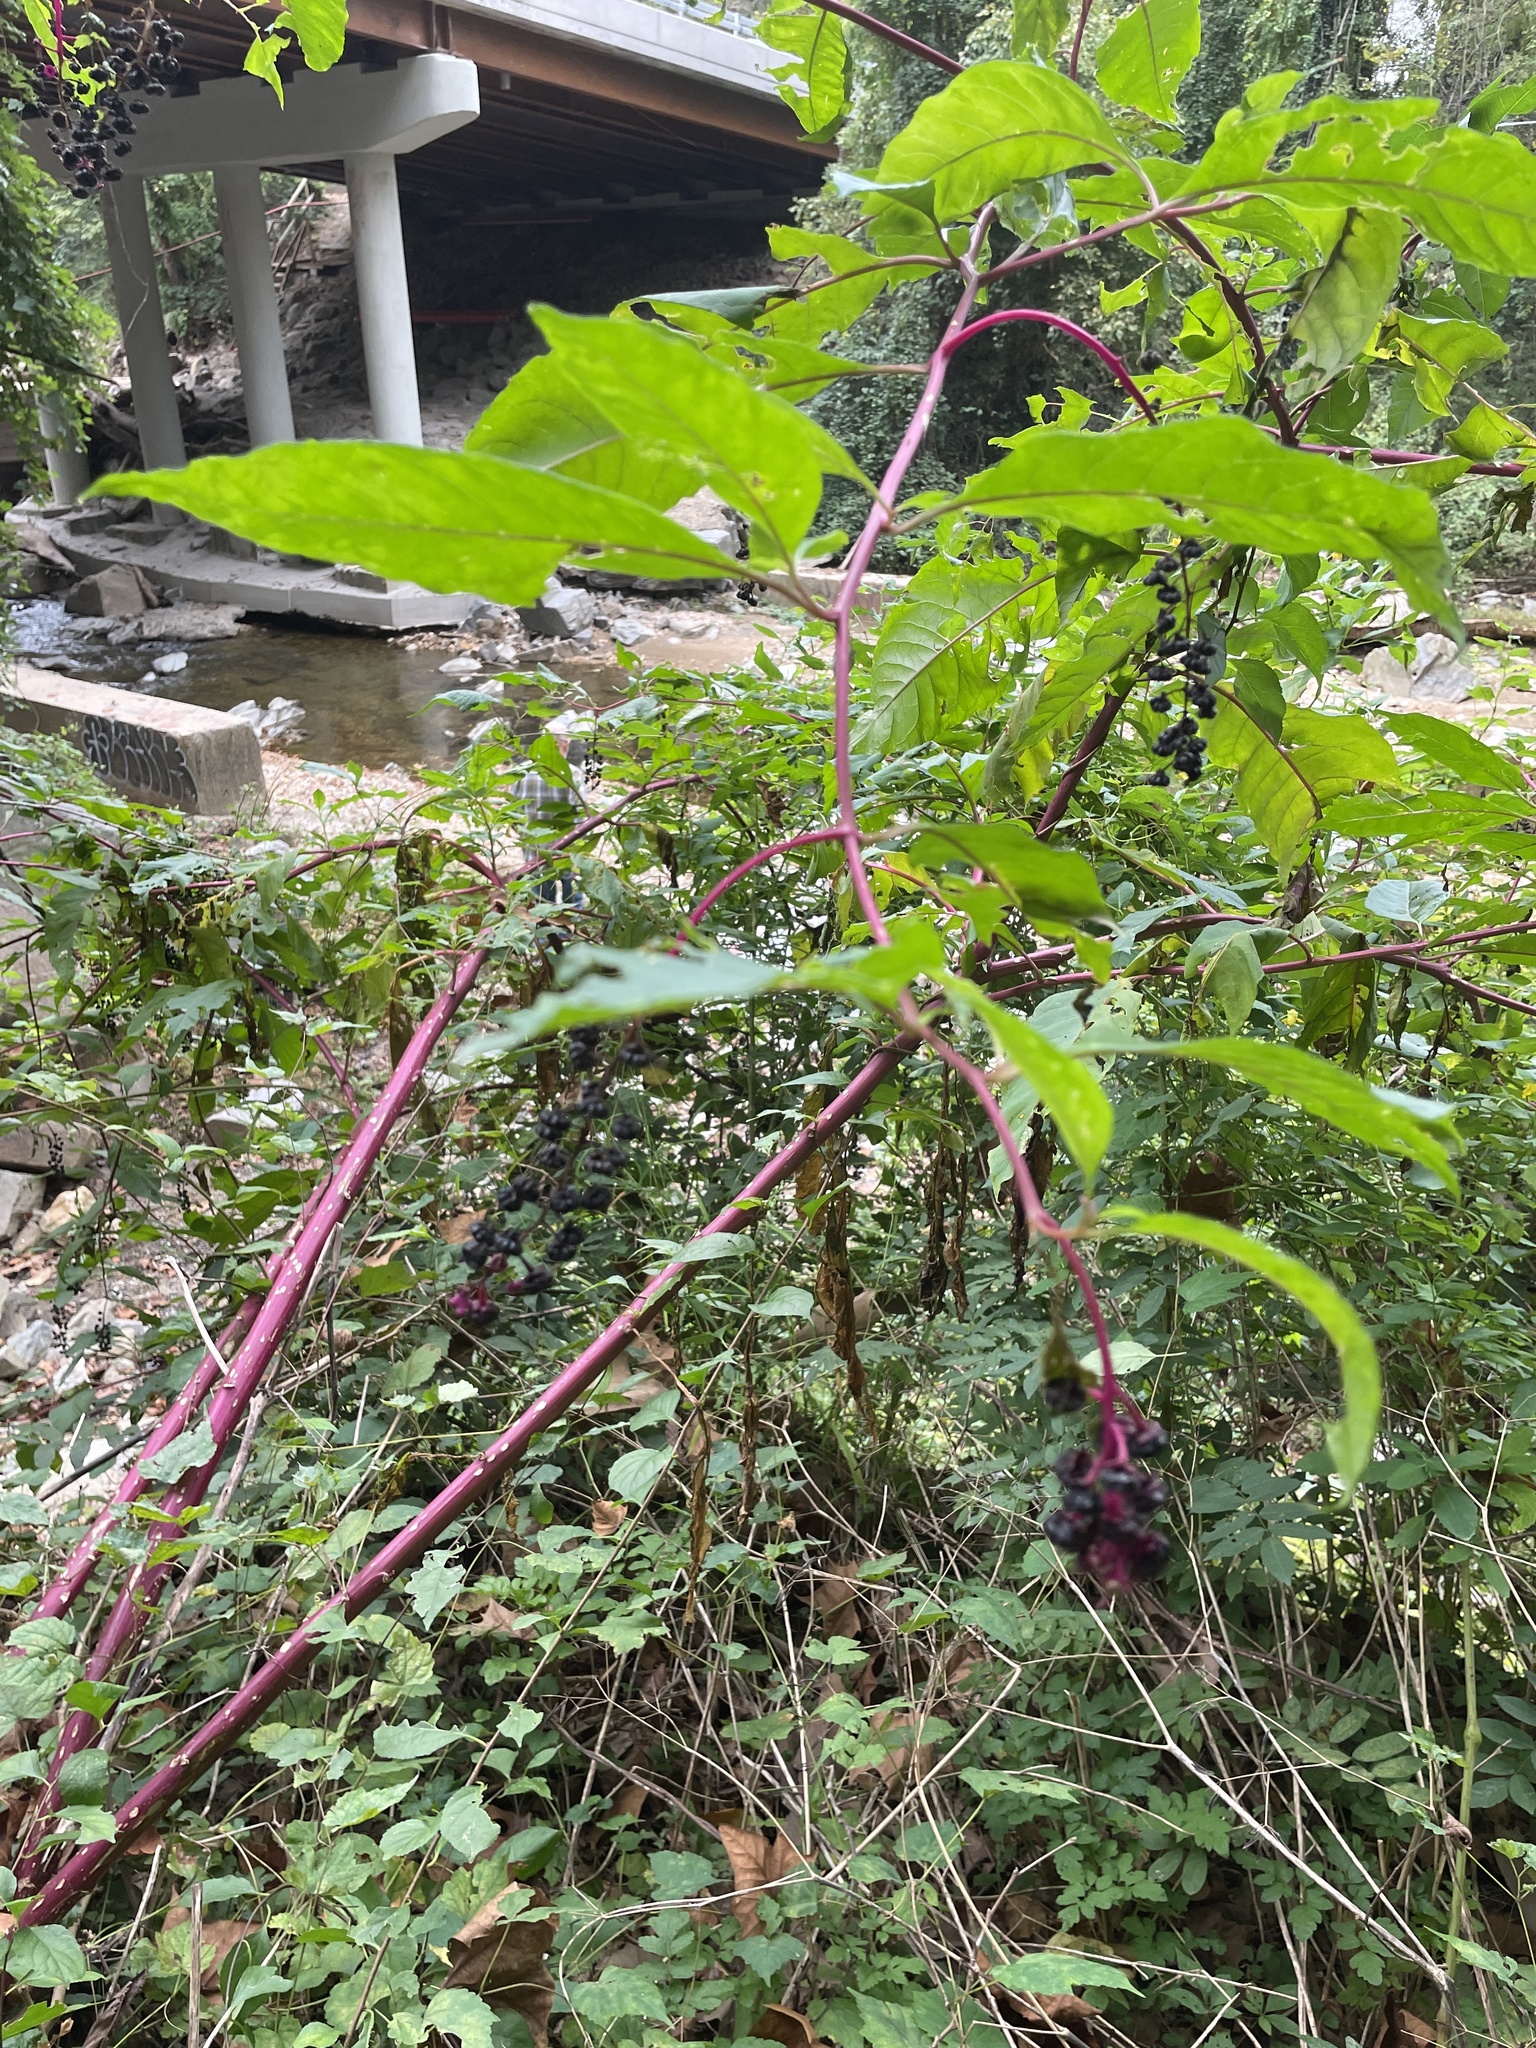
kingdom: Plantae
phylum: Tracheophyta
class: Magnoliopsida
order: Caryophyllales
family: Phytolaccaceae
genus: Phytolacca
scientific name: Phytolacca americana
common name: American pokeweed
